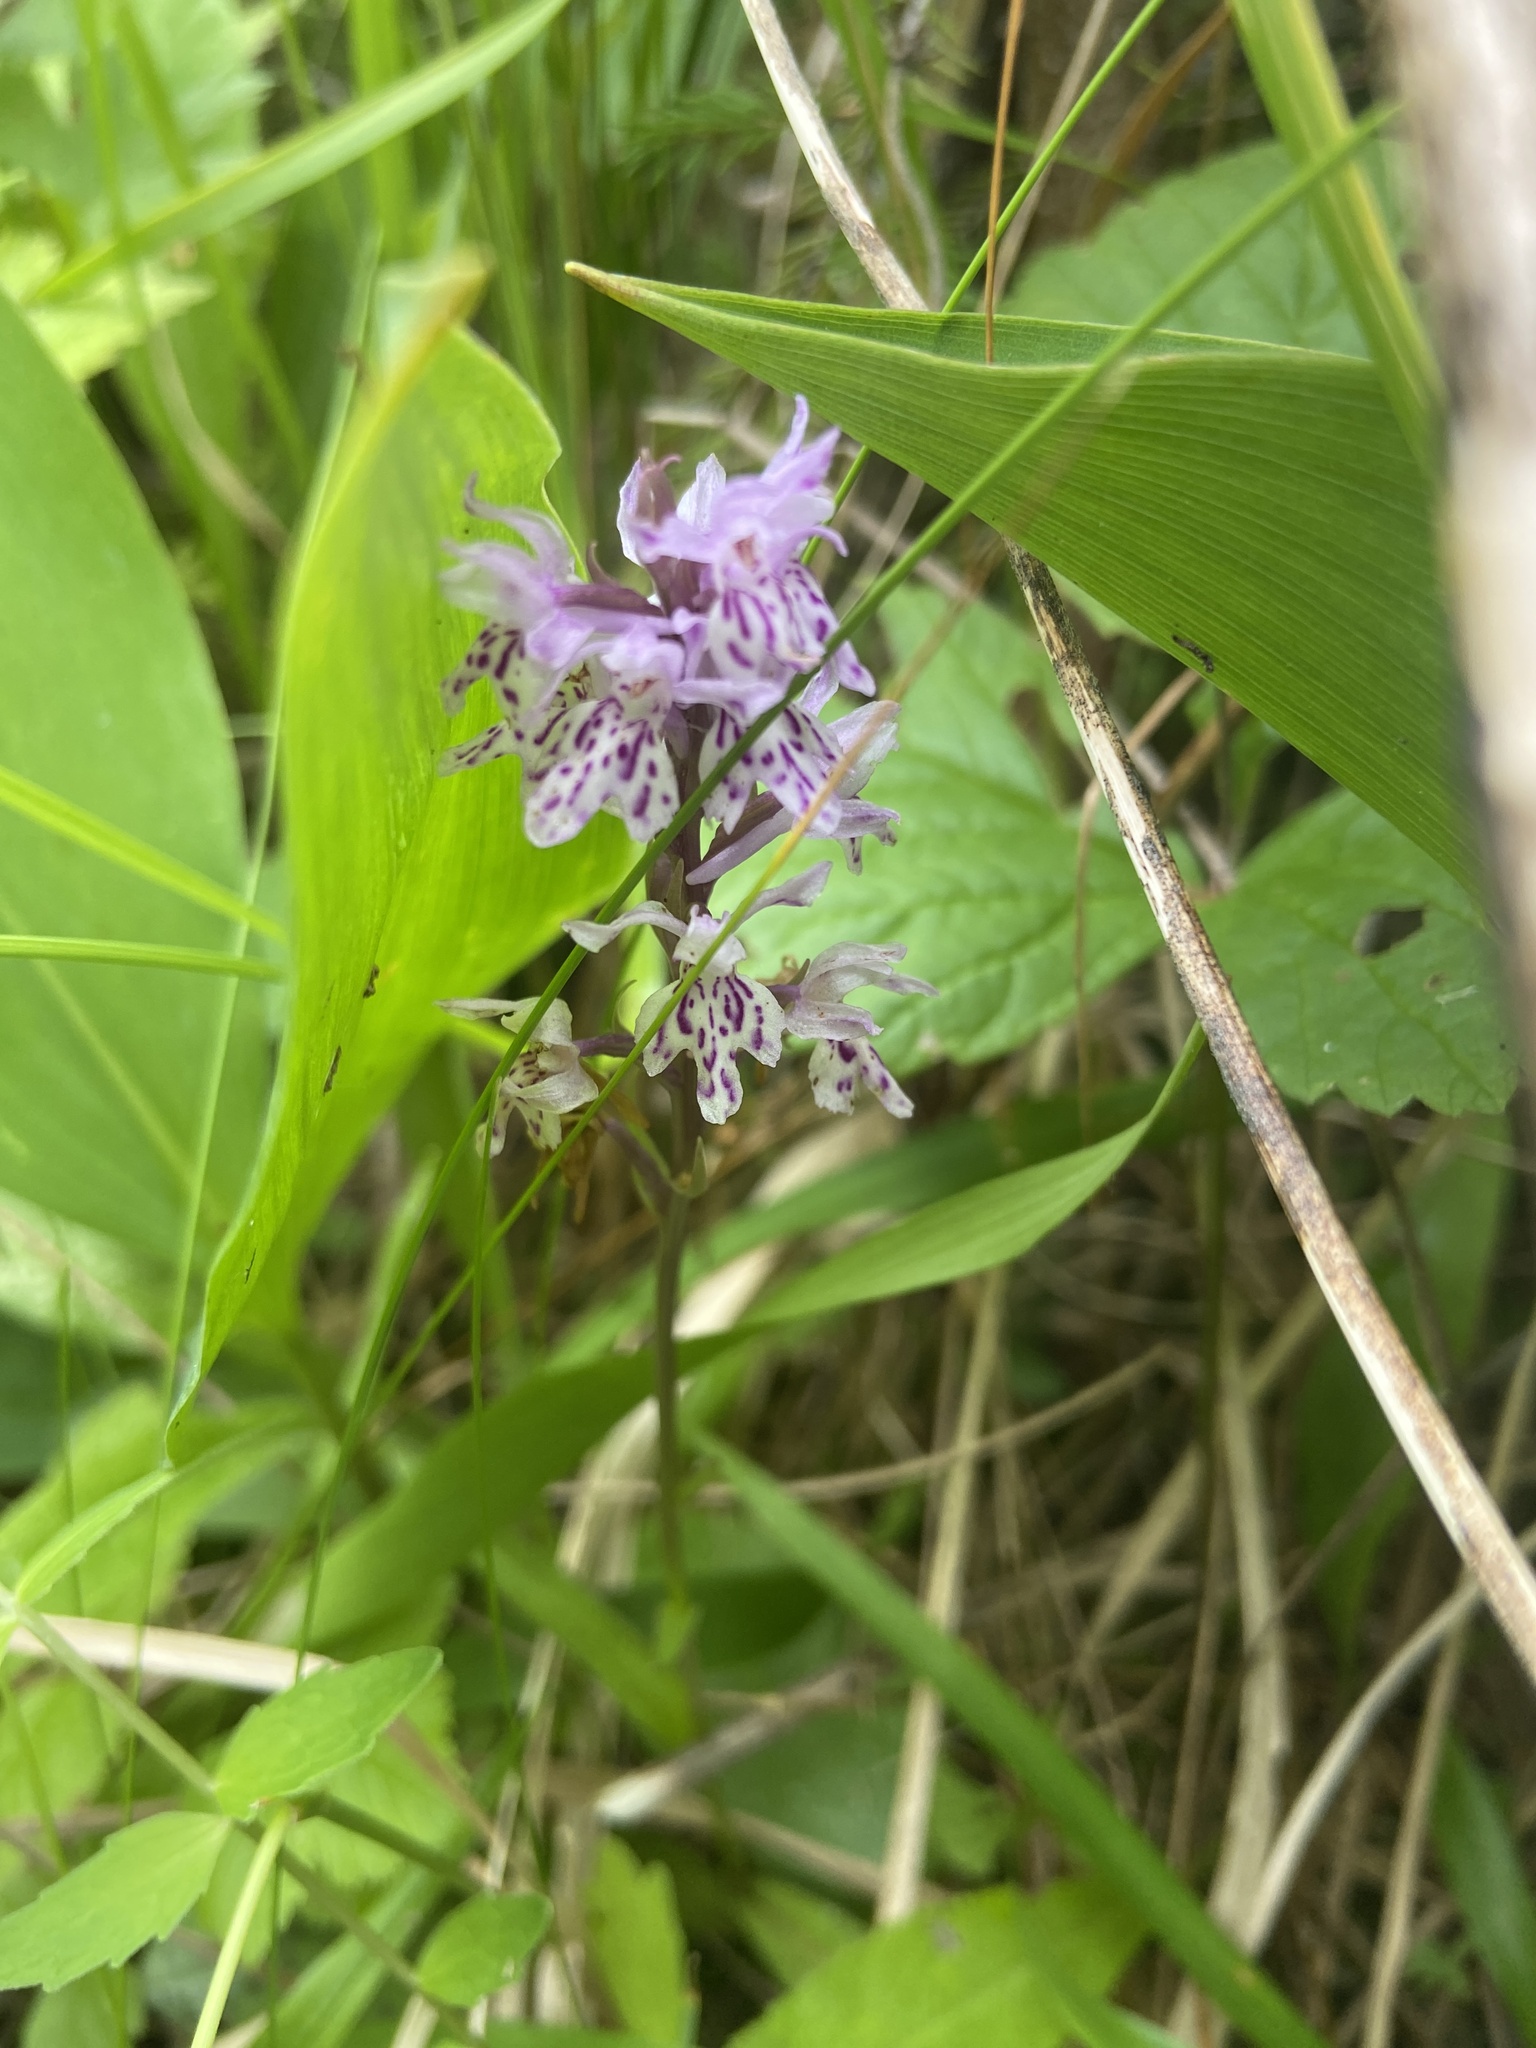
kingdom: Plantae
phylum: Tracheophyta
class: Liliopsida
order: Asparagales
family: Orchidaceae
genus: Dactylorhiza
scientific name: Dactylorhiza maculata
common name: Heath spotted-orchid
